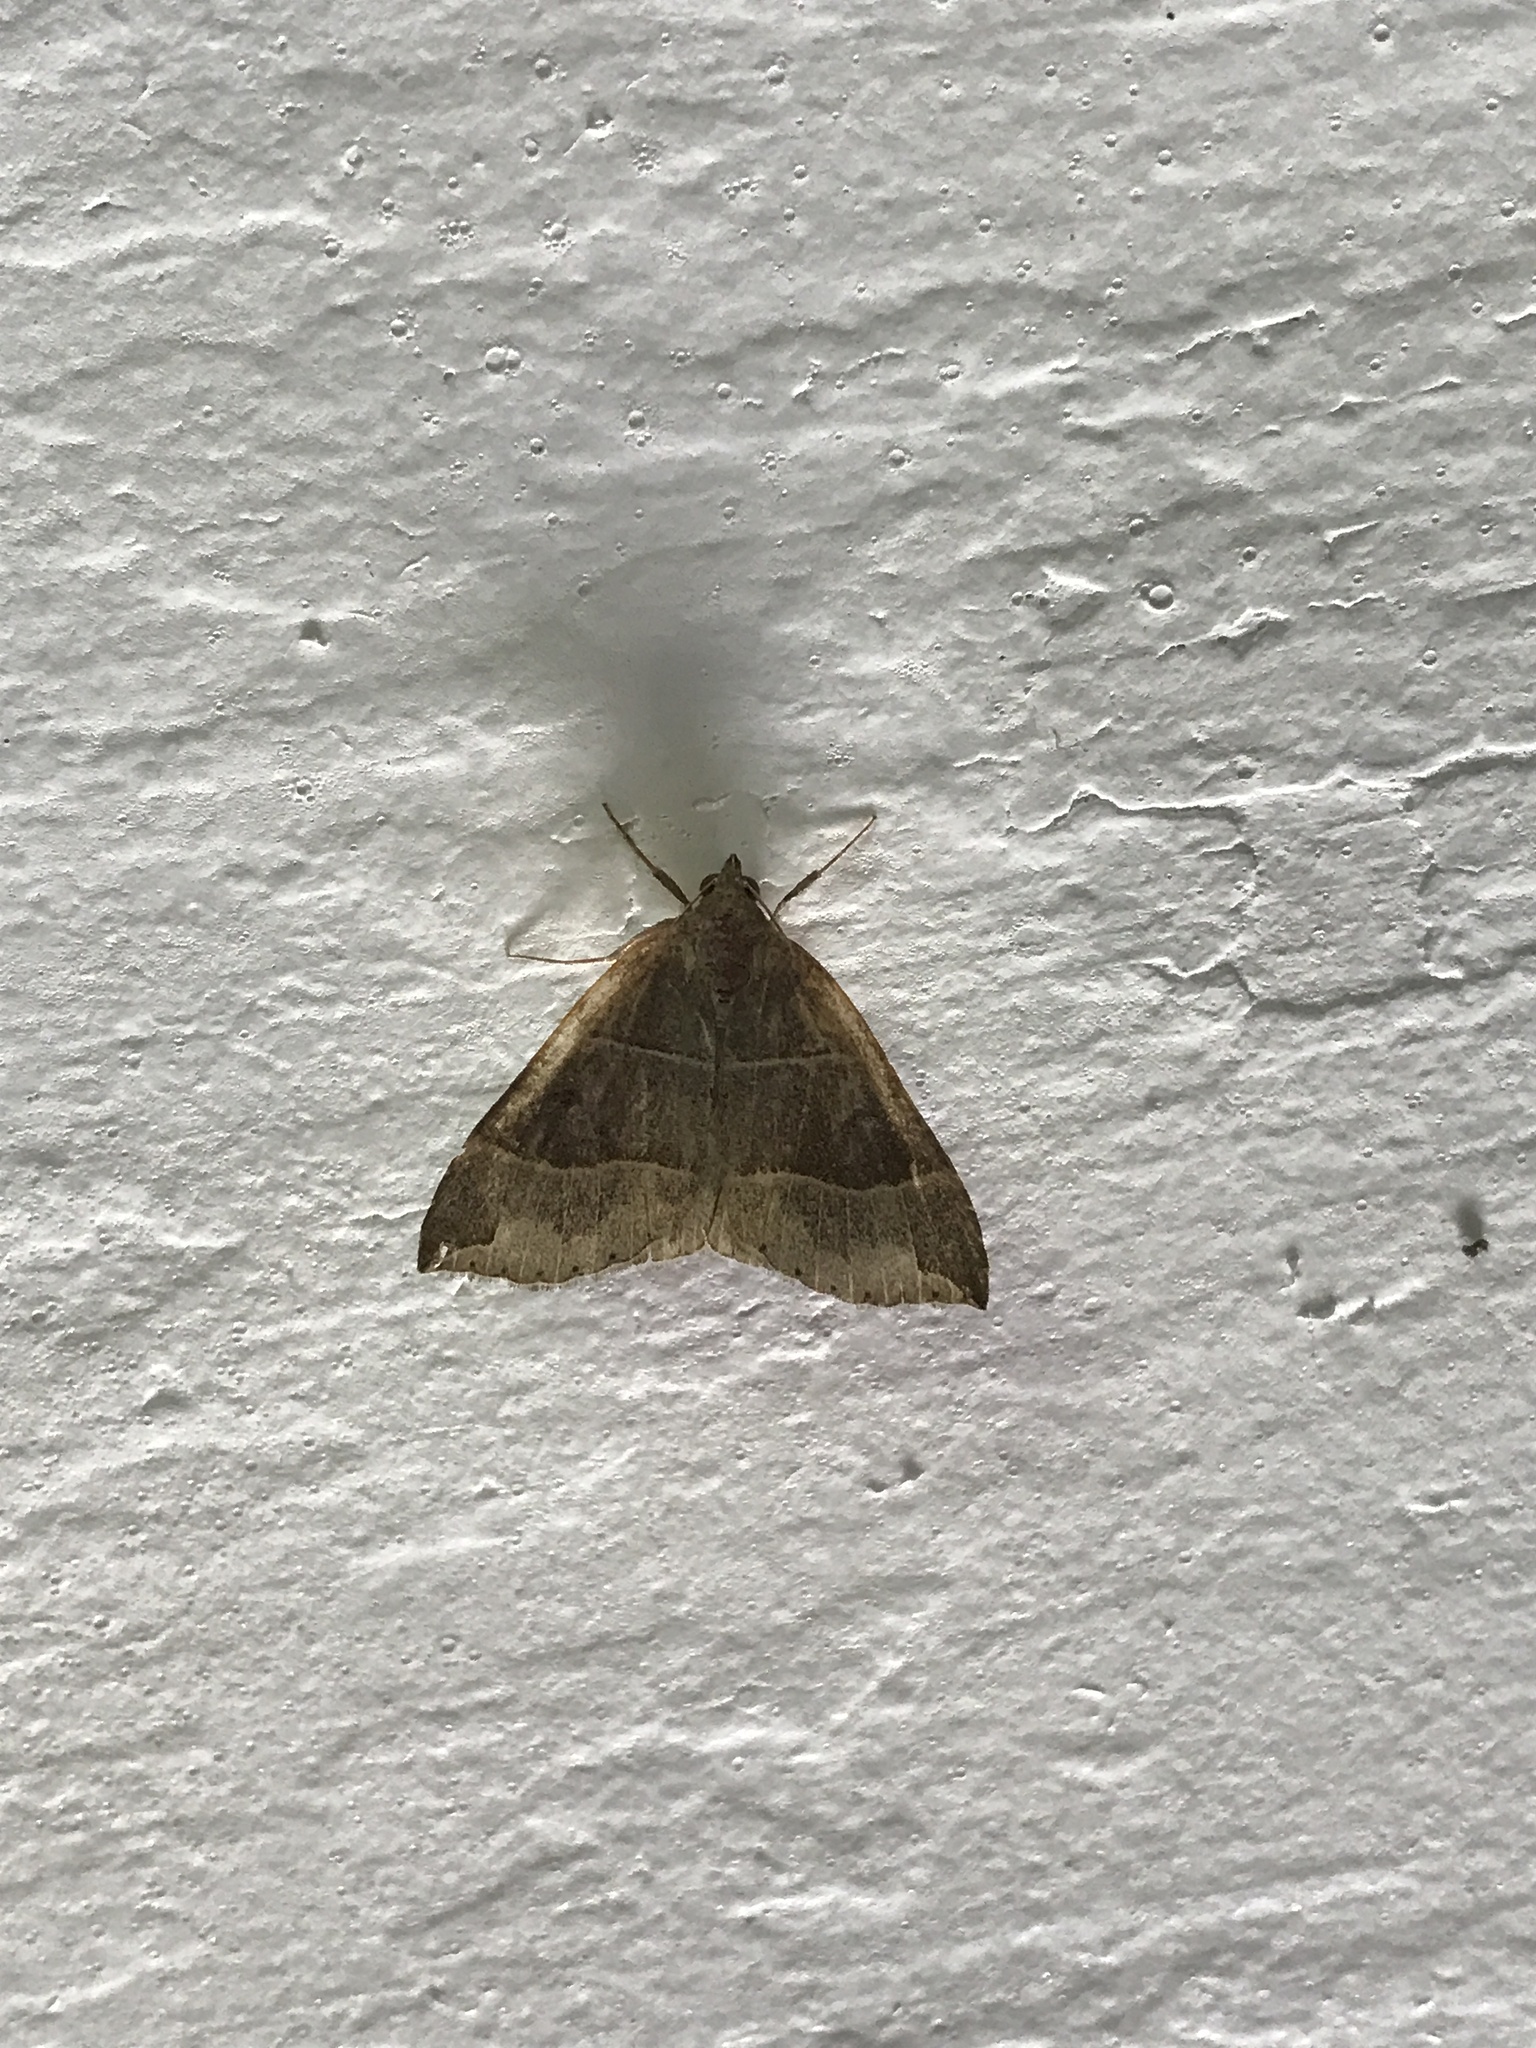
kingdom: Animalia
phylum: Arthropoda
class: Insecta
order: Lepidoptera
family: Erebidae
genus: Parallelia
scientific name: Parallelia bistriaris
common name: Maple looper moth
